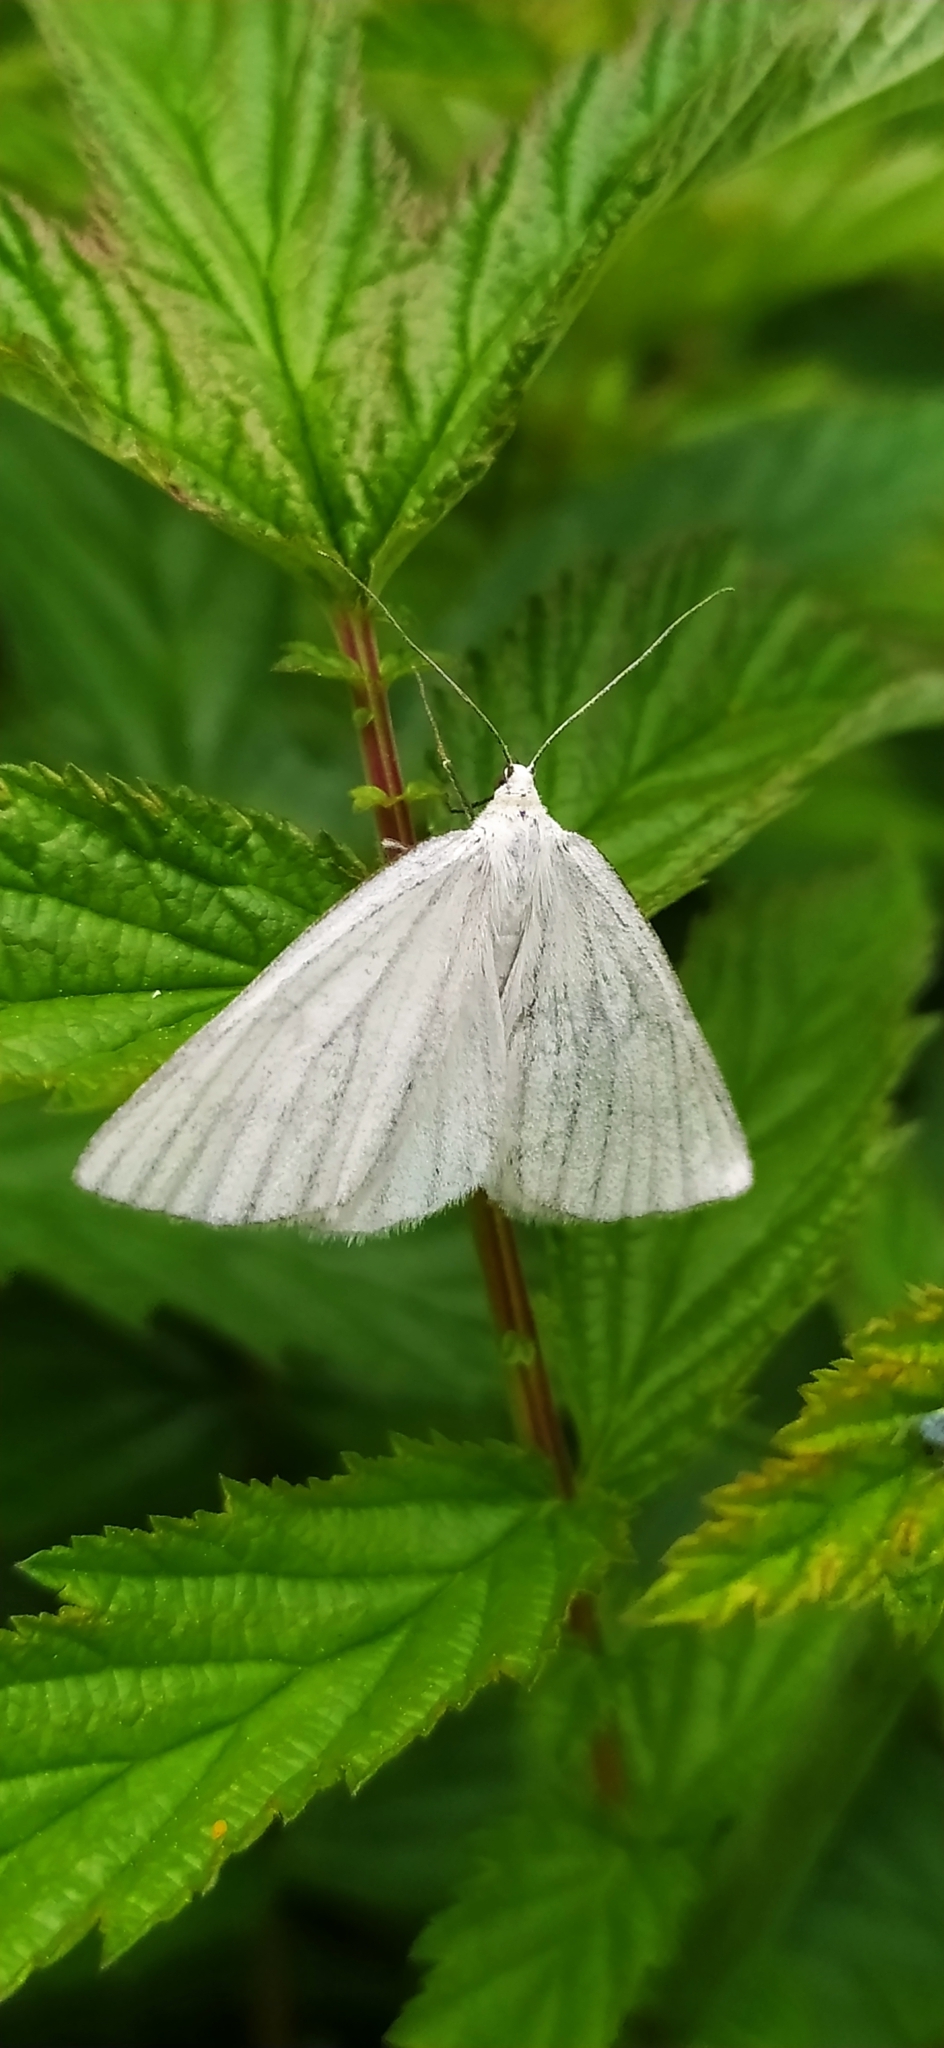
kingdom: Animalia
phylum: Arthropoda
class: Insecta
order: Lepidoptera
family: Geometridae
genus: Siona
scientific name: Siona lineata
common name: Black-veined moth
